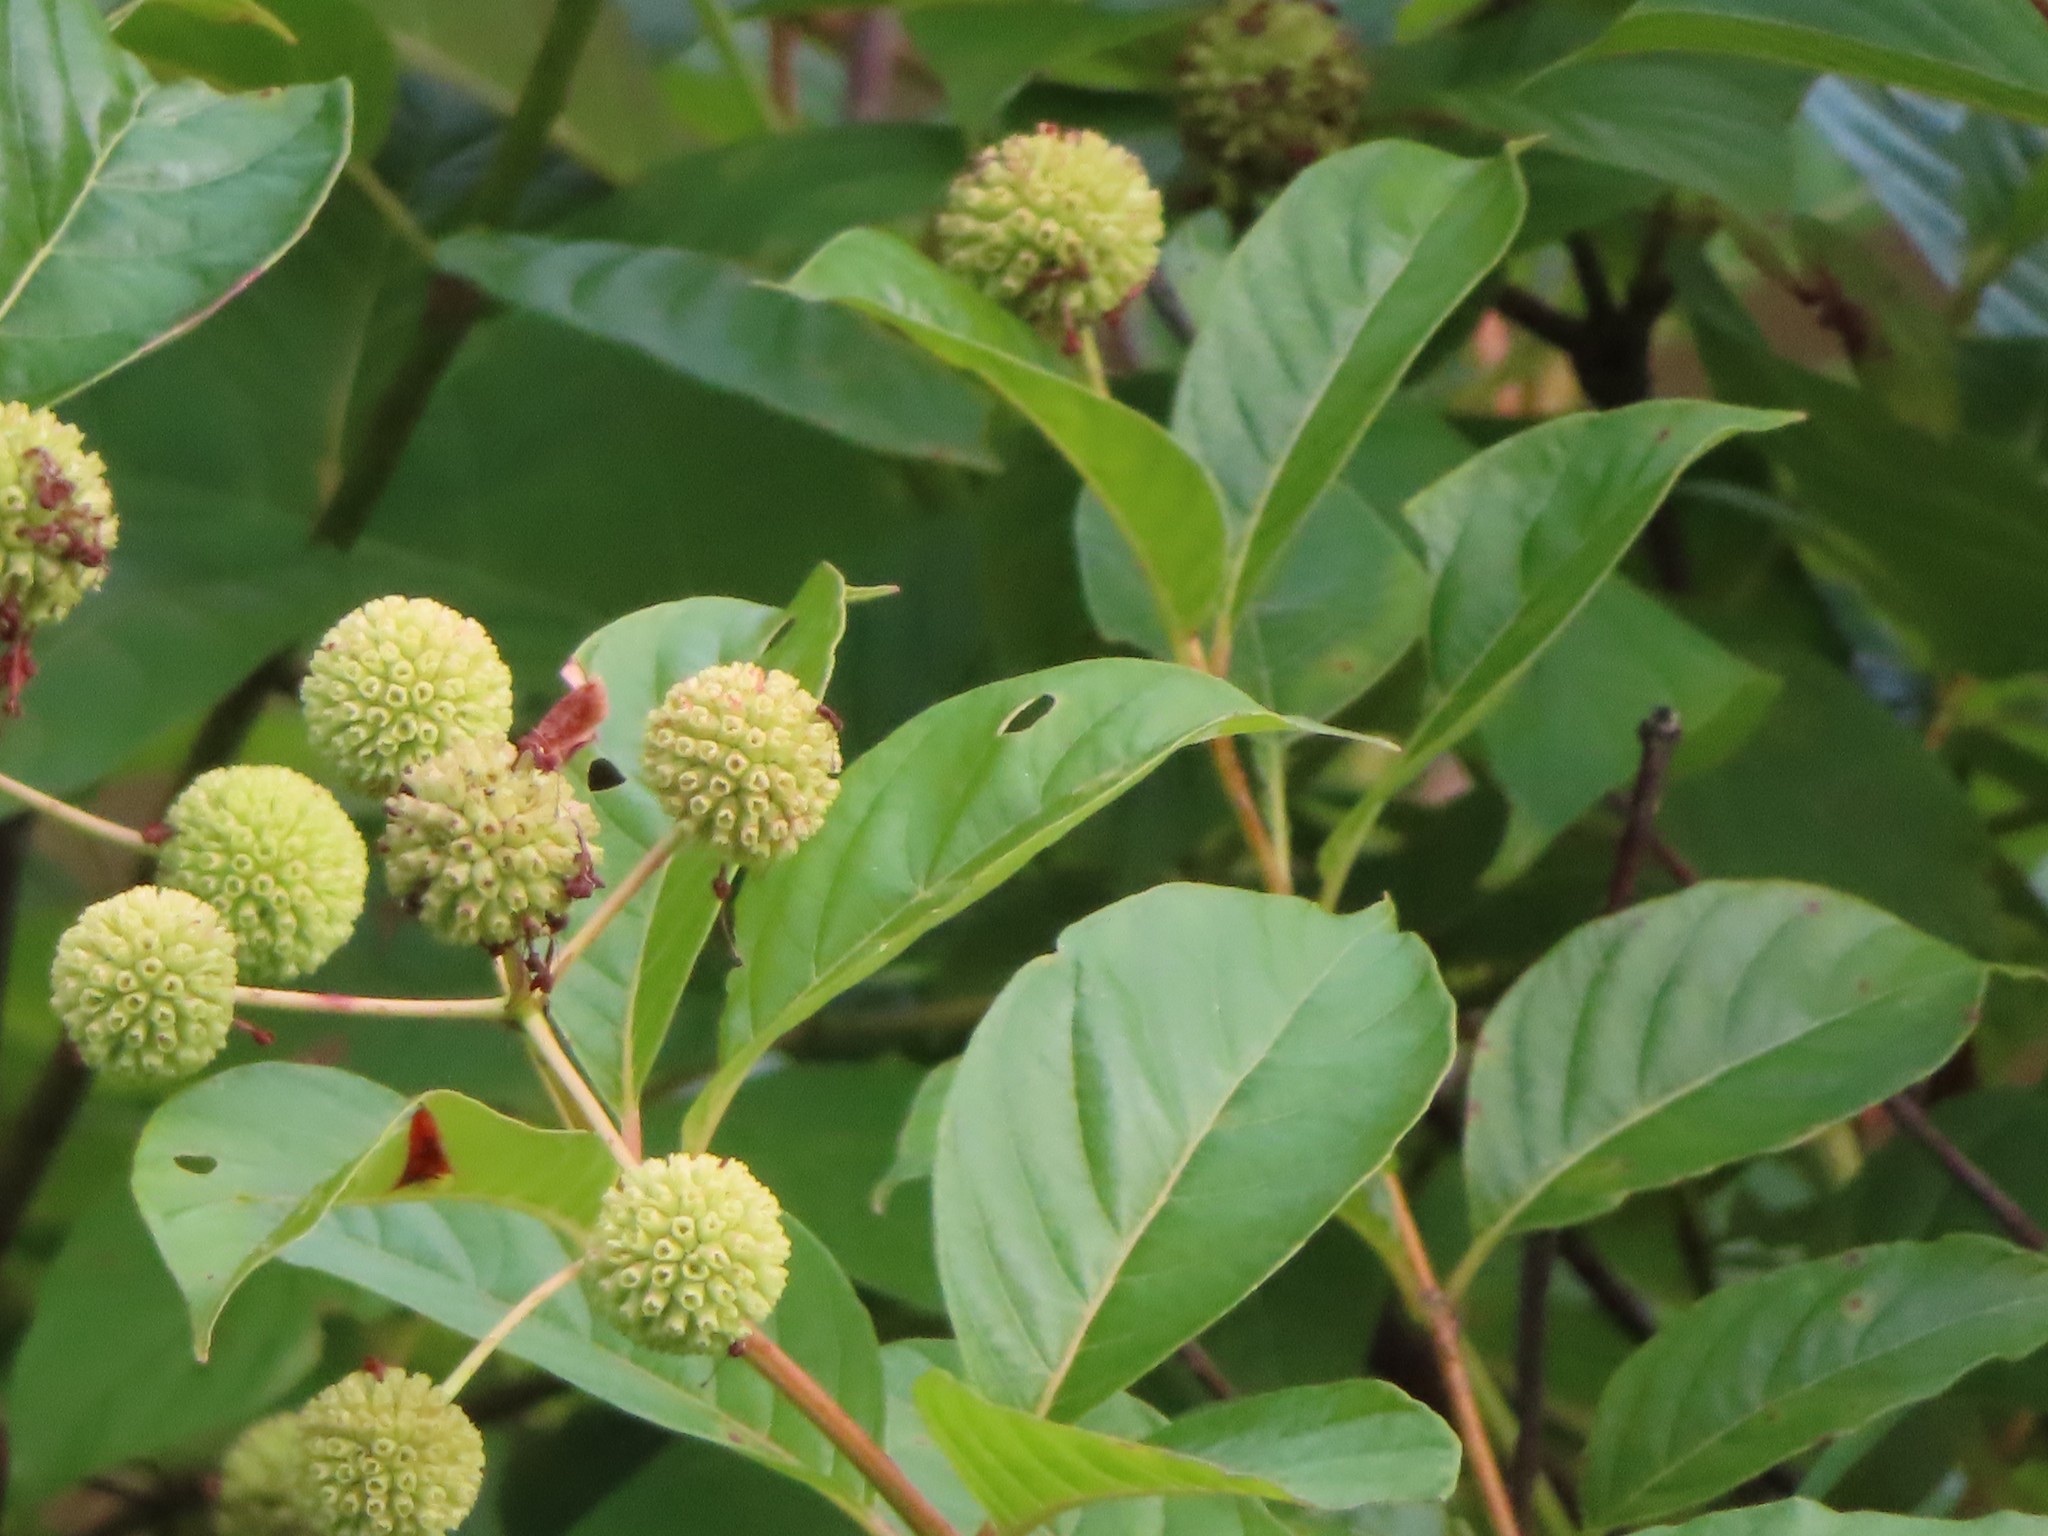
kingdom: Plantae
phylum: Tracheophyta
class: Magnoliopsida
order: Gentianales
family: Rubiaceae
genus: Cephalanthus
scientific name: Cephalanthus occidentalis
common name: Button-willow
